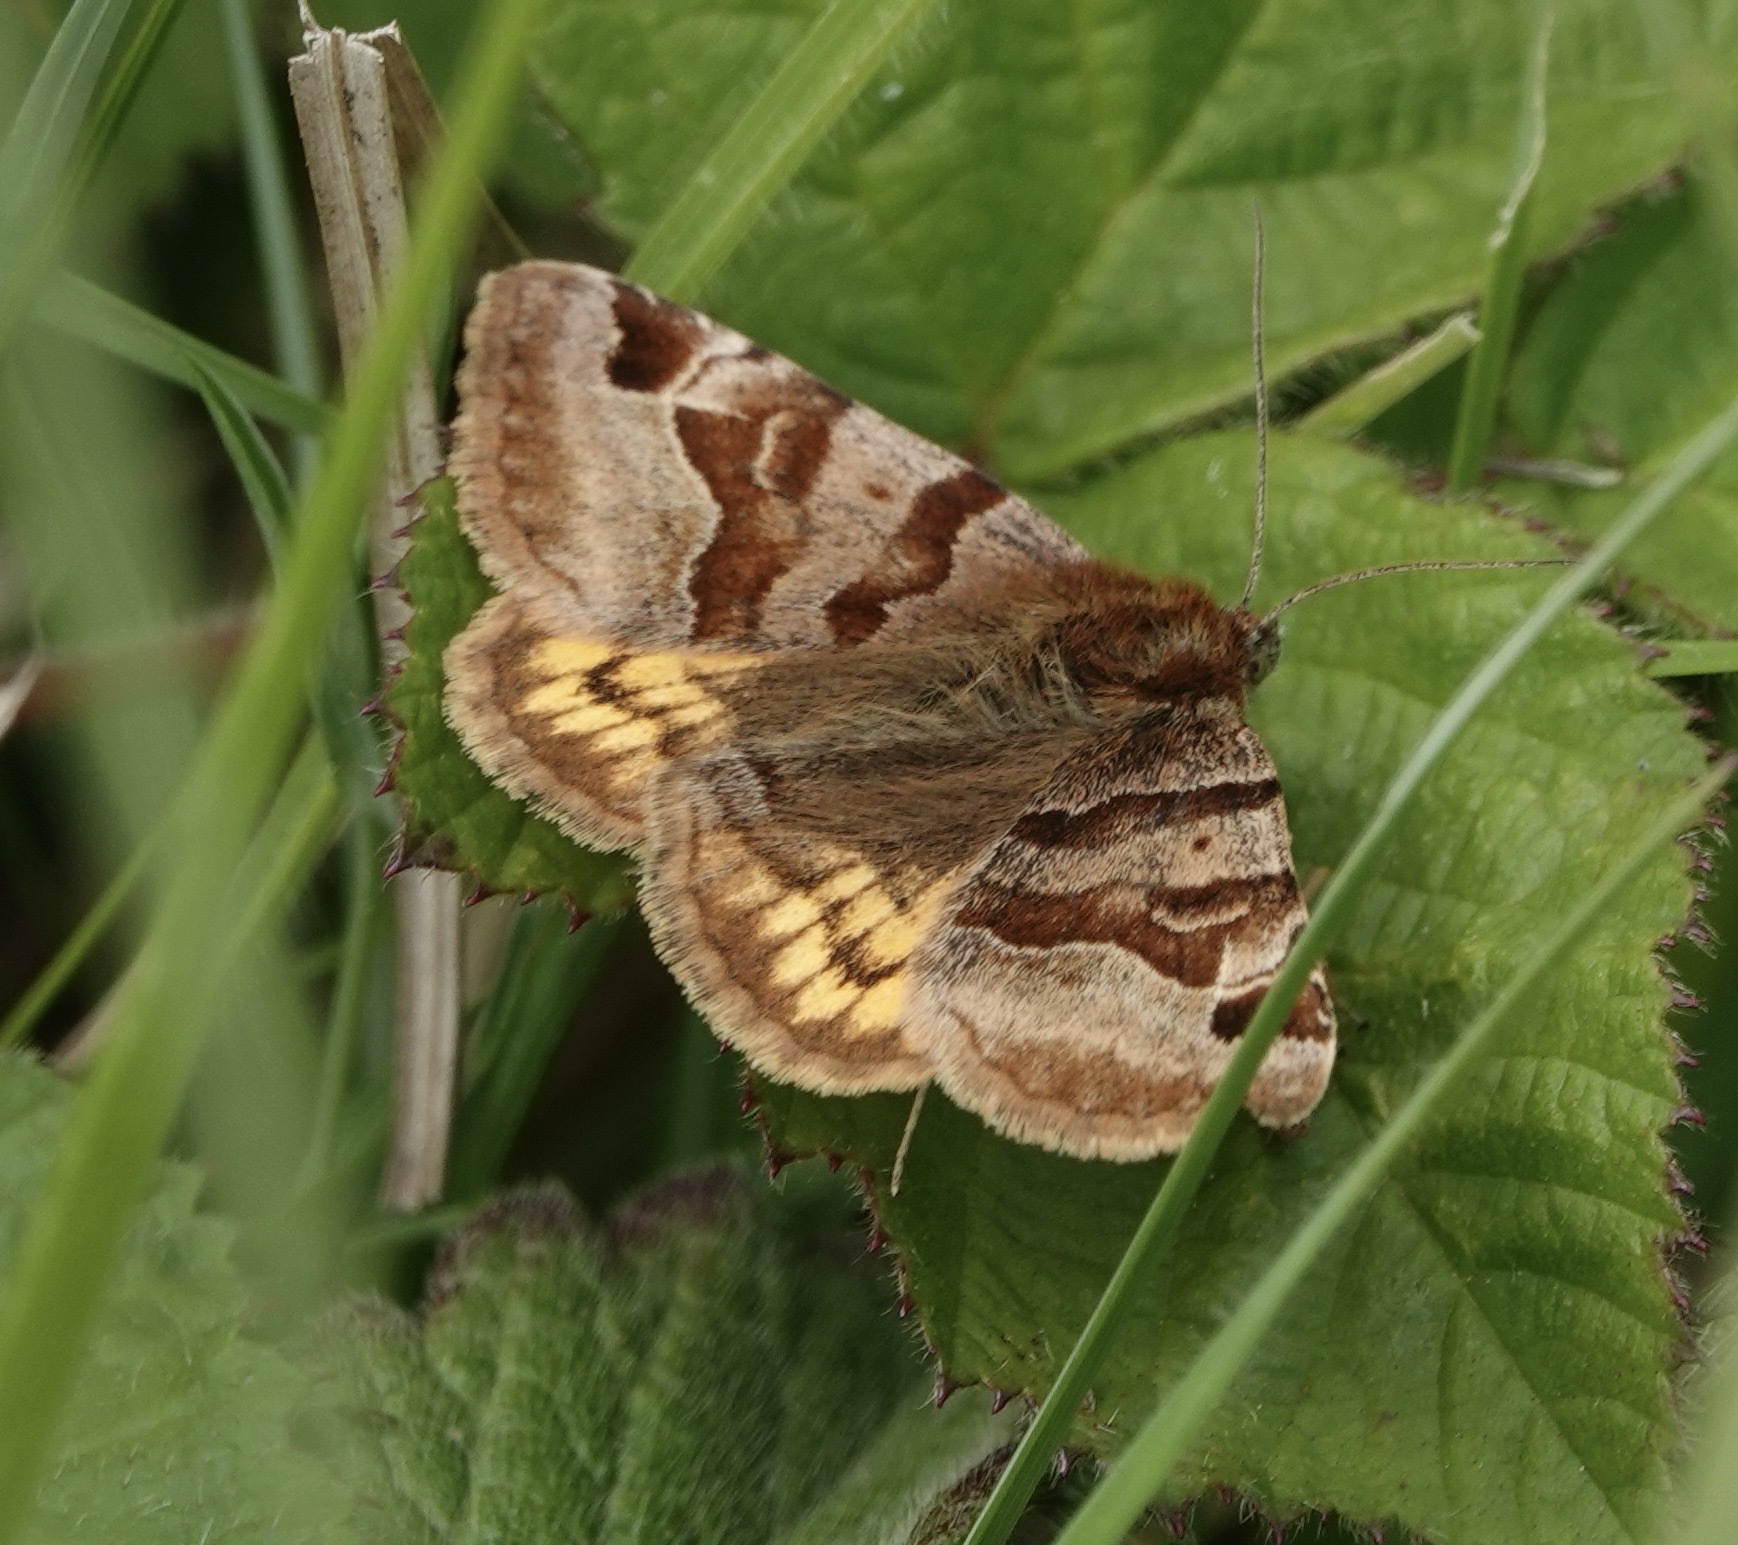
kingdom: Animalia
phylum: Arthropoda
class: Insecta
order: Lepidoptera
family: Erebidae
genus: Euclidia
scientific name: Euclidia glyphica
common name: Burnet companion
